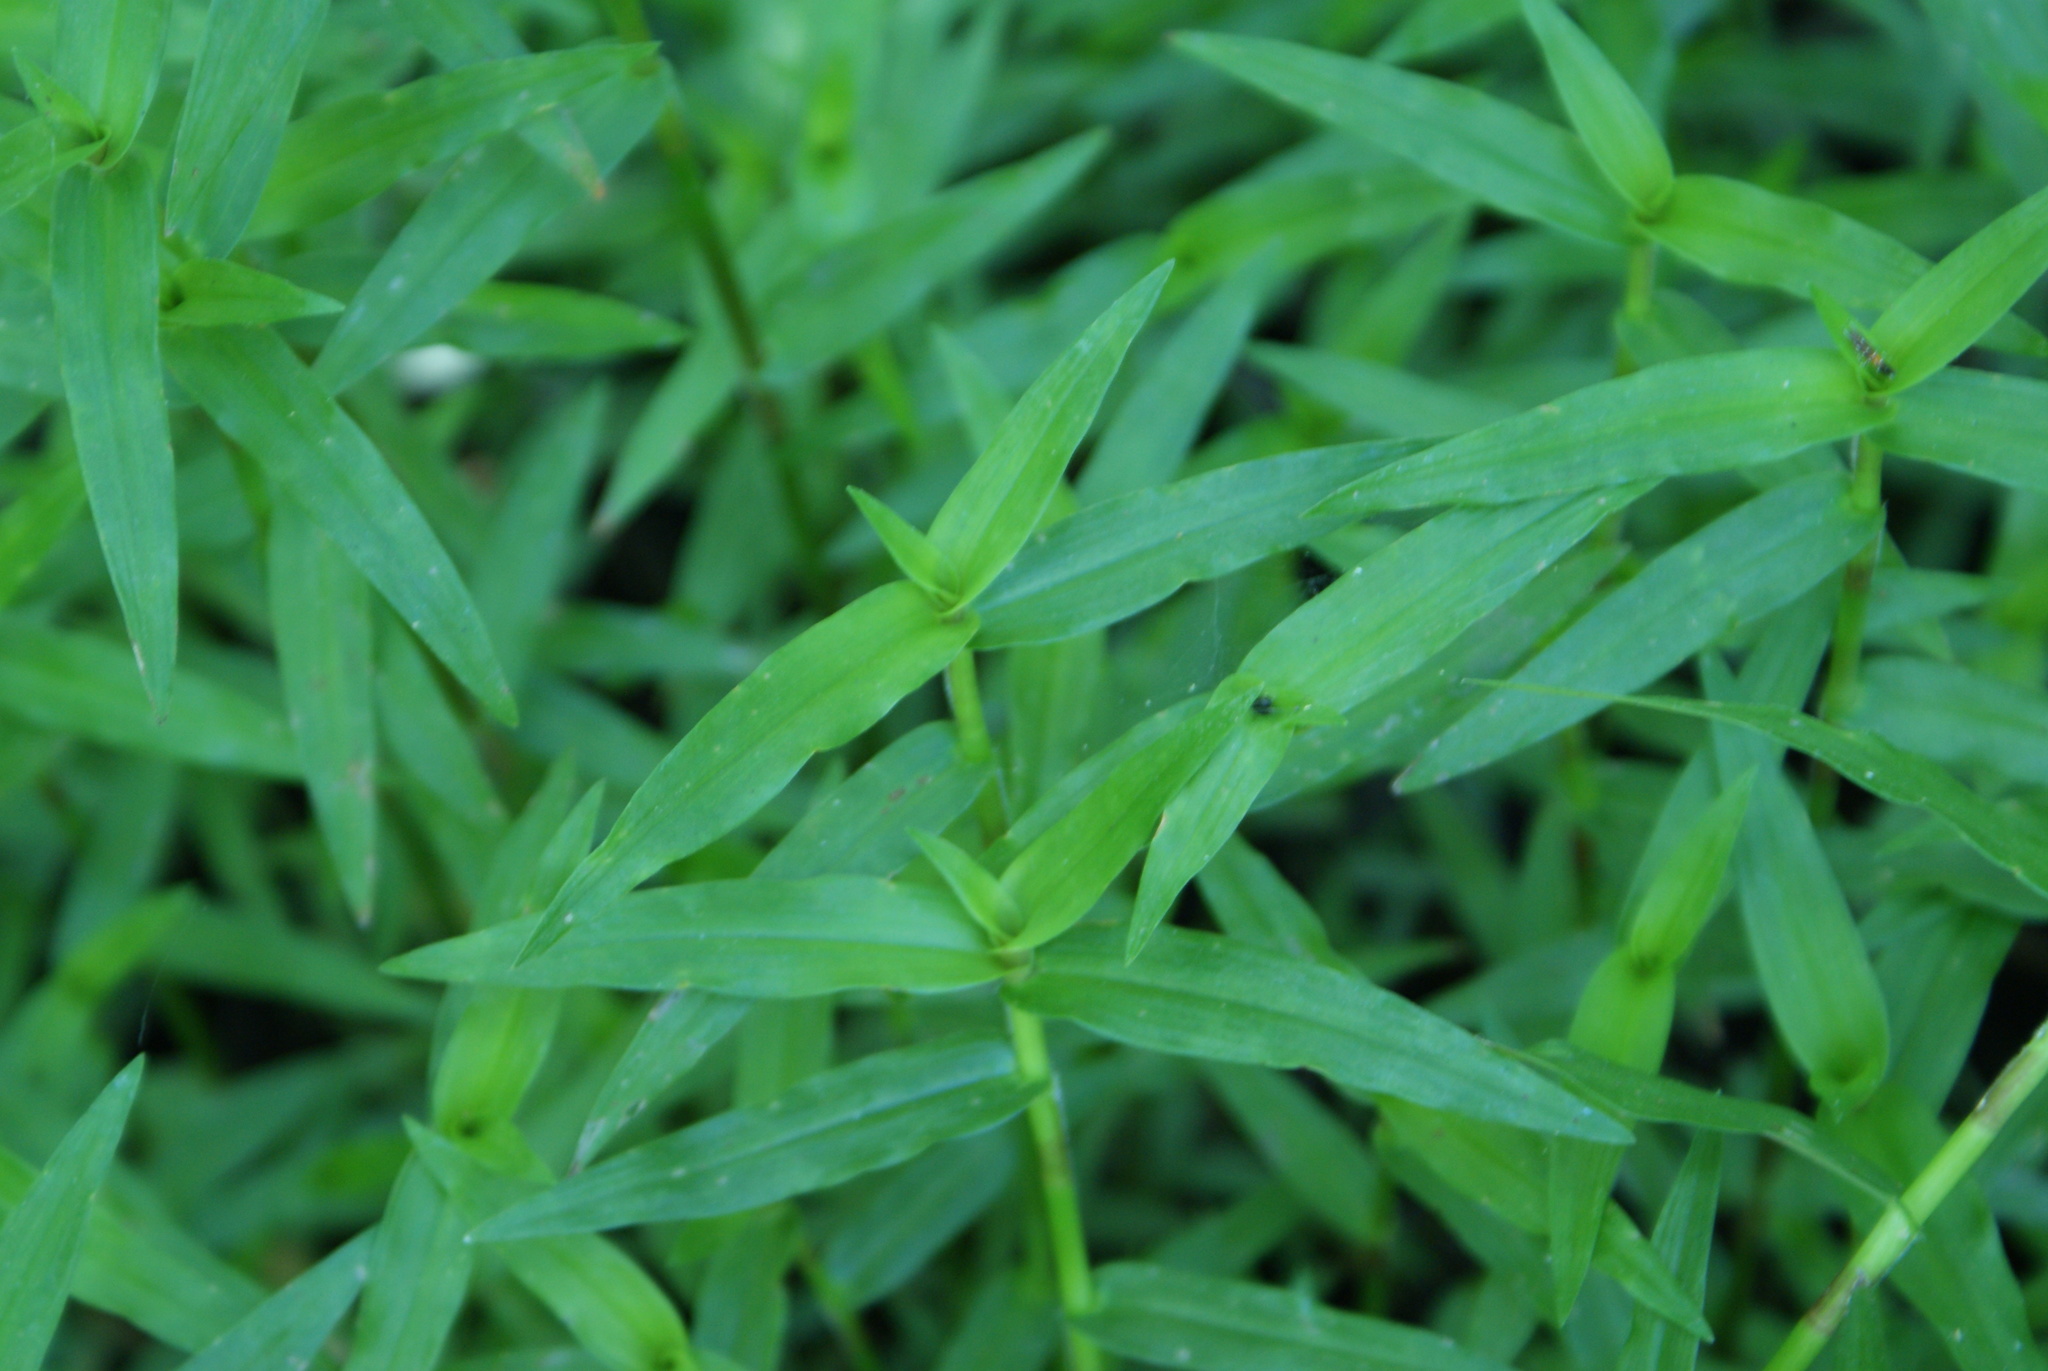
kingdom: Plantae
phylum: Tracheophyta
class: Liliopsida
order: Commelinales
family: Commelinaceae
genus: Murdannia
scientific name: Murdannia keisak
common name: Wartremoving herb
